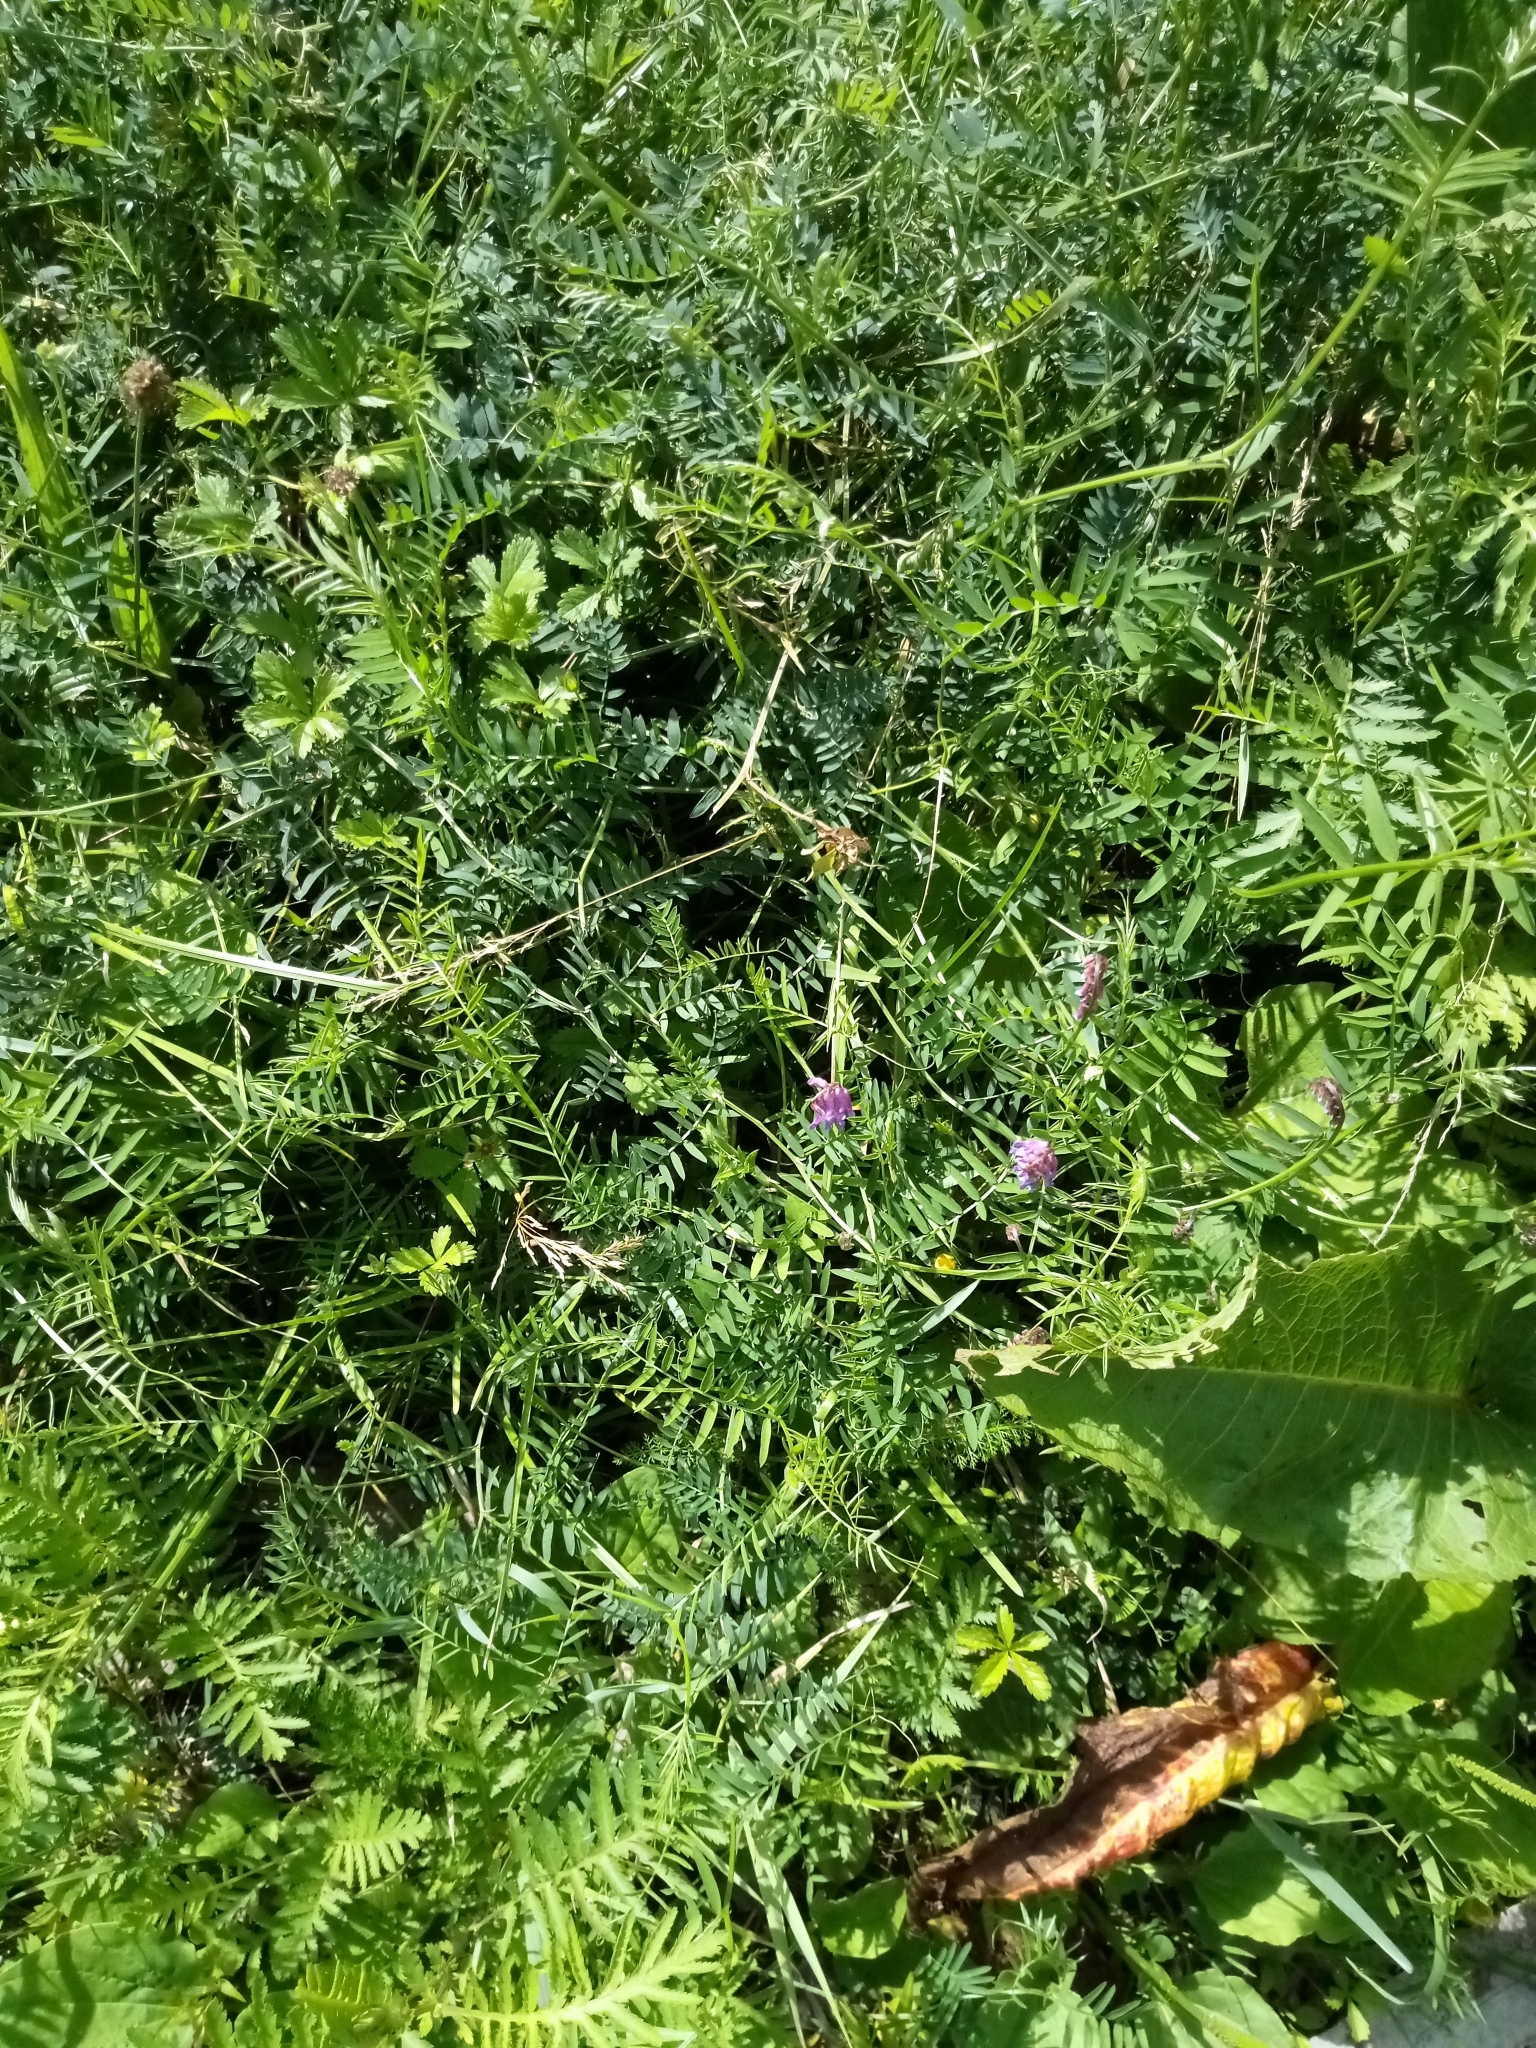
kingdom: Plantae
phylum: Tracheophyta
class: Magnoliopsida
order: Fabales
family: Fabaceae
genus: Vicia
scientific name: Vicia cracca
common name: Bird vetch
